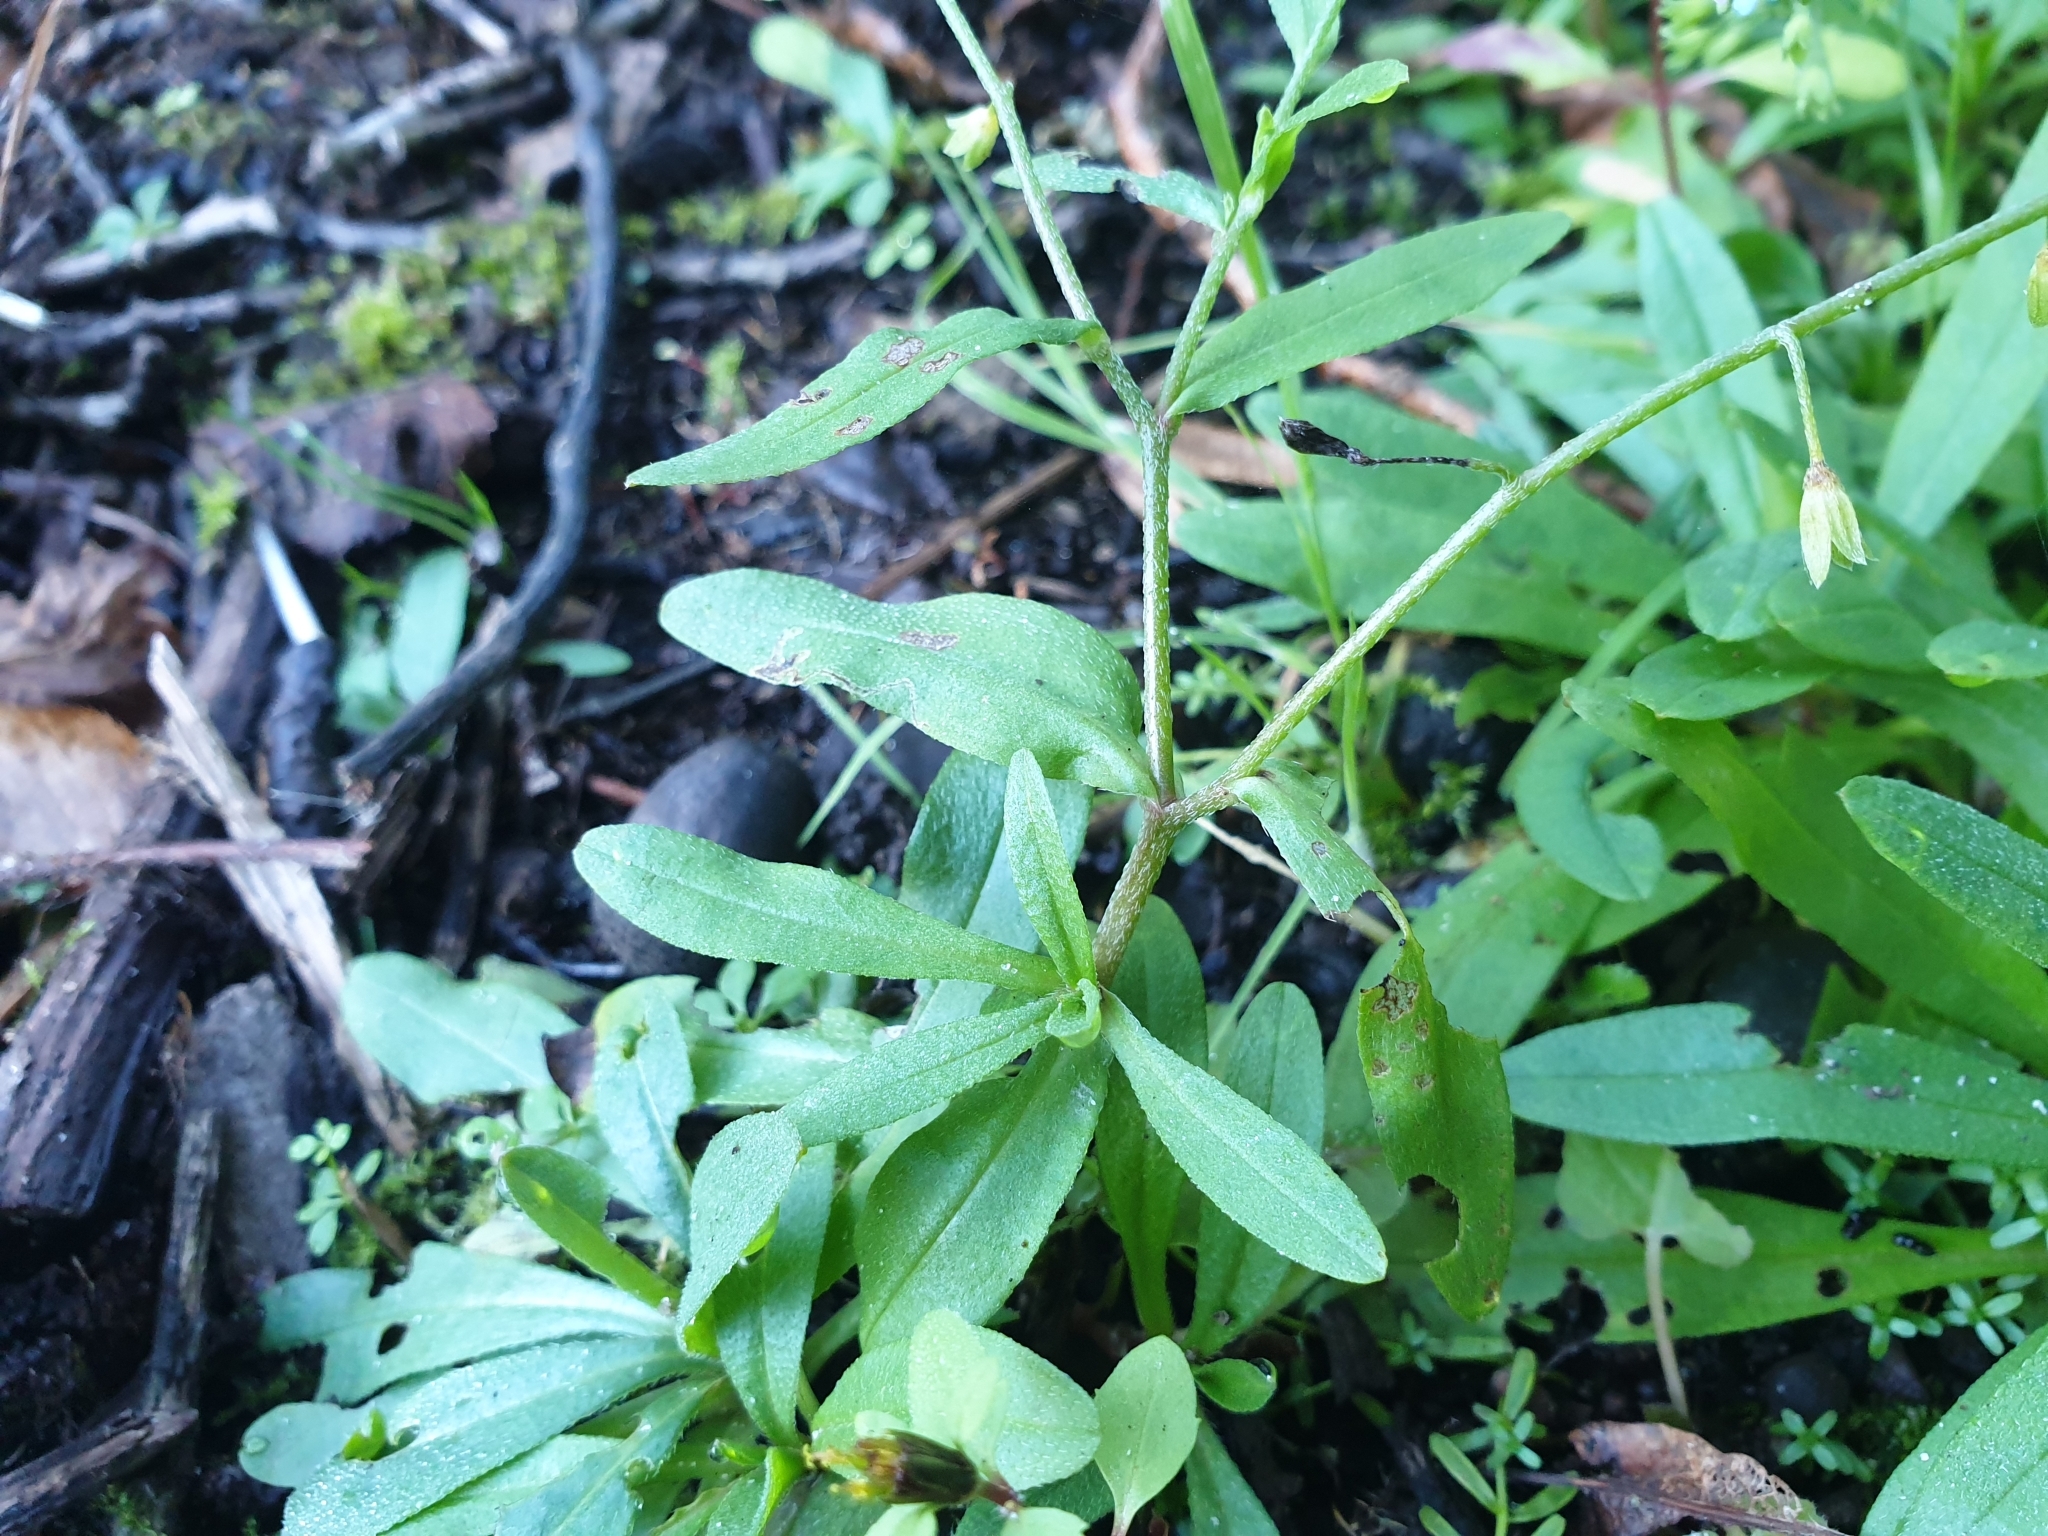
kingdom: Plantae
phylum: Tracheophyta
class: Magnoliopsida
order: Boraginales
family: Boraginaceae
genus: Myosotis
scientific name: Myosotis laxa
